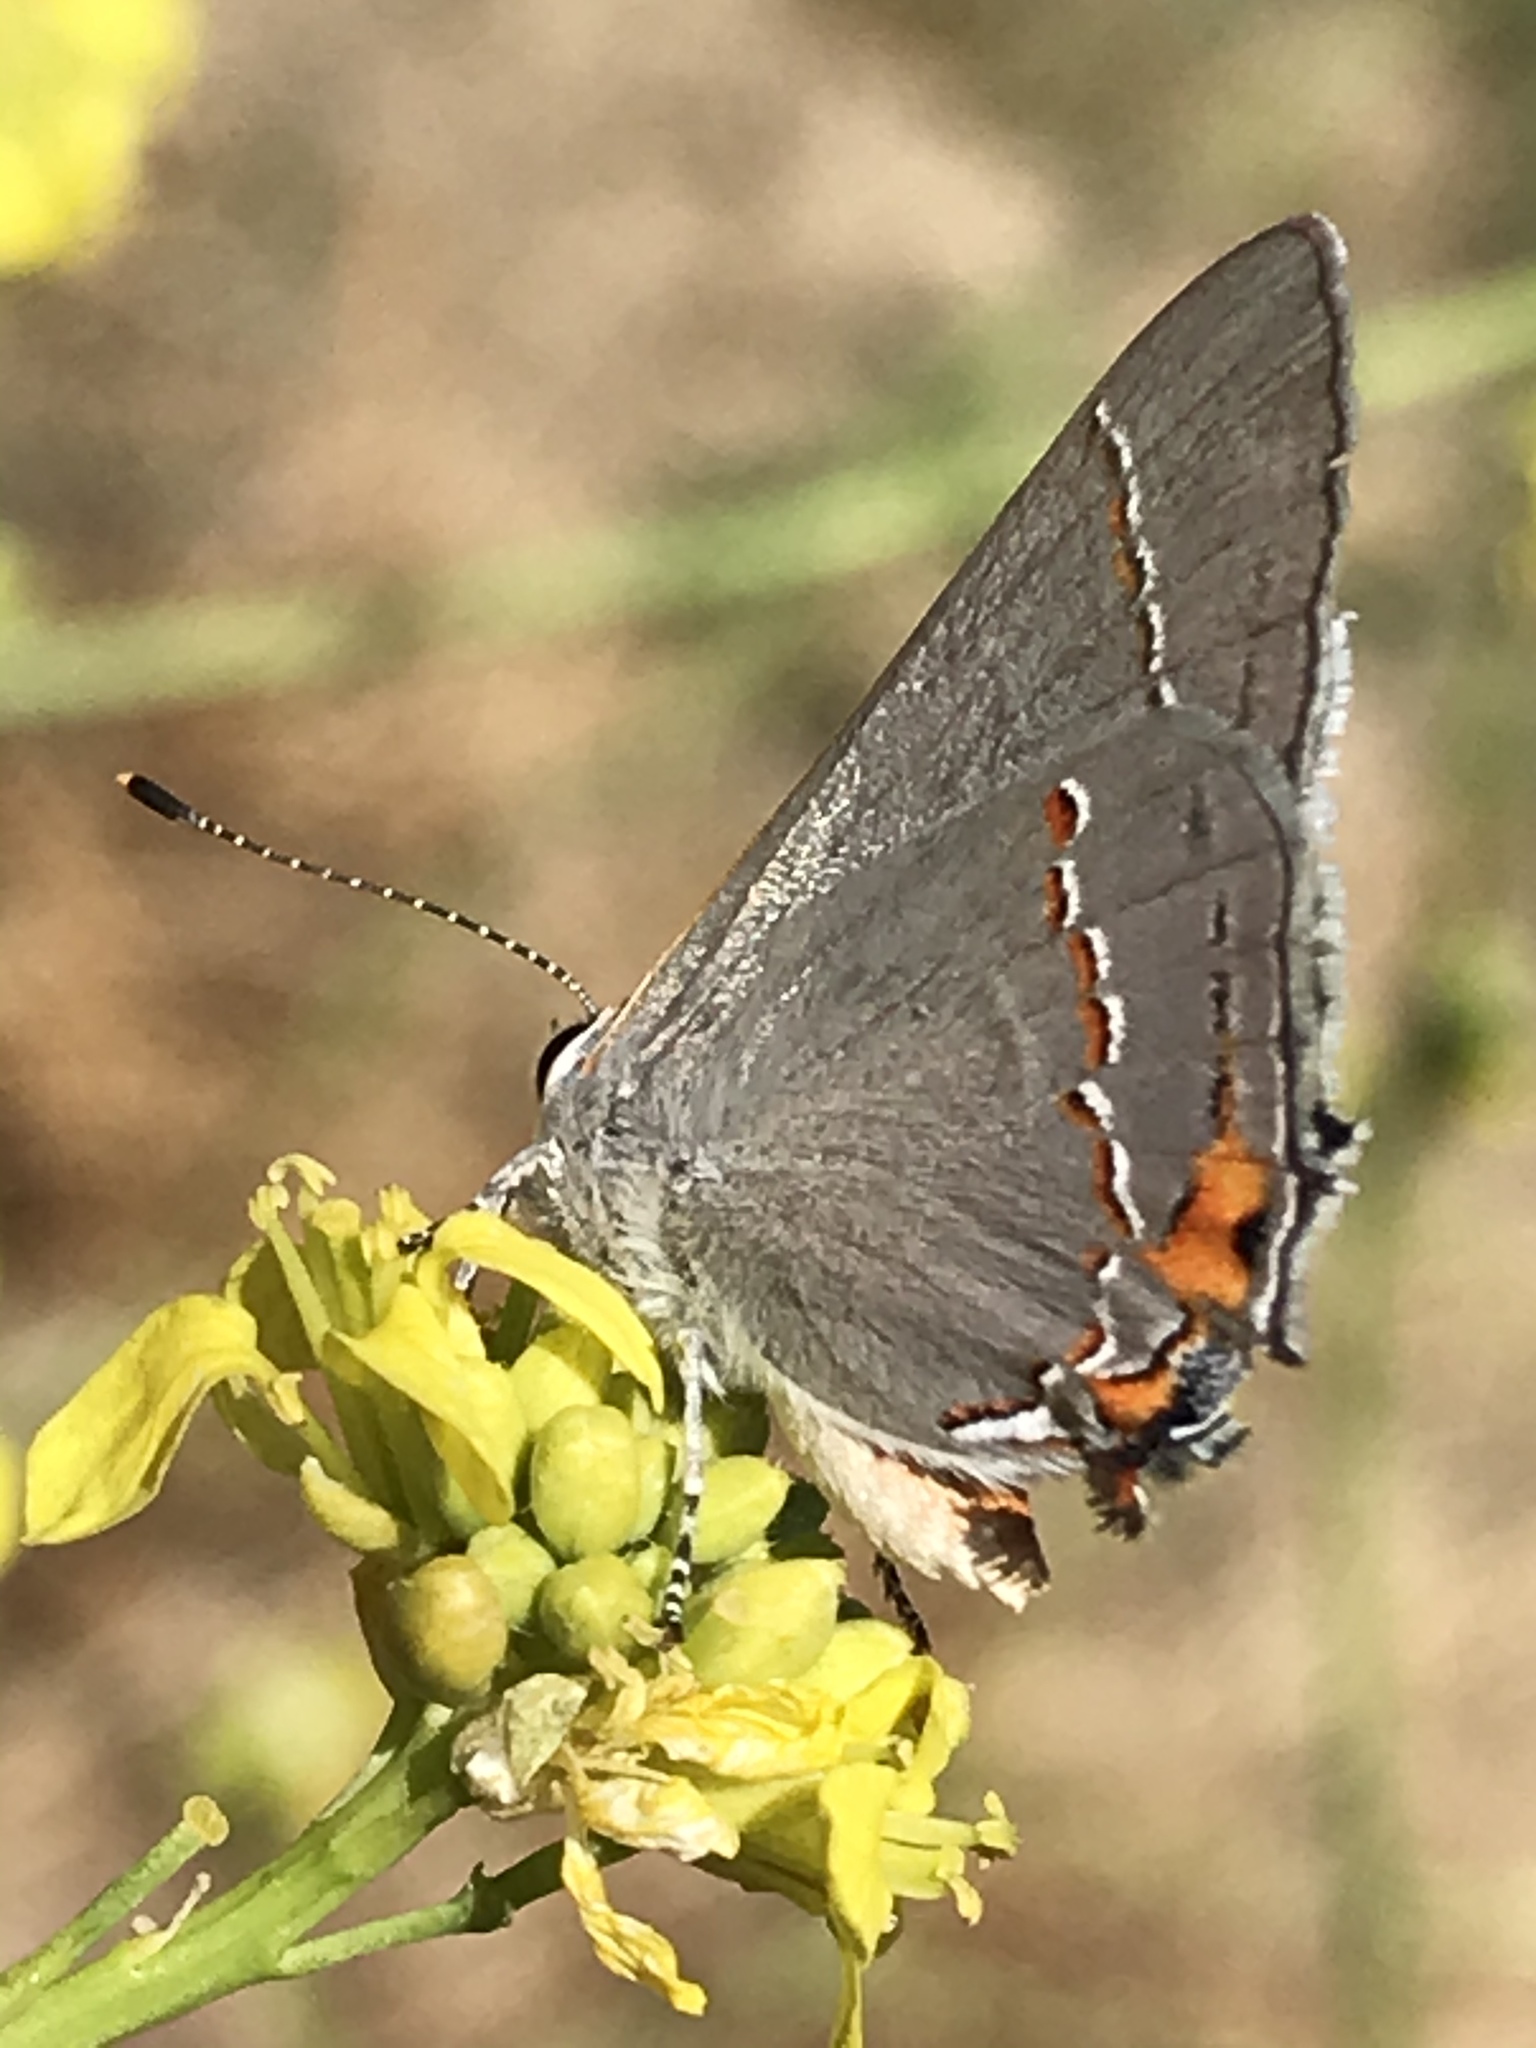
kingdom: Animalia
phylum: Arthropoda
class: Insecta
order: Lepidoptera
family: Lycaenidae
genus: Strymon
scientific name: Strymon melinus
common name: Gray hairstreak
